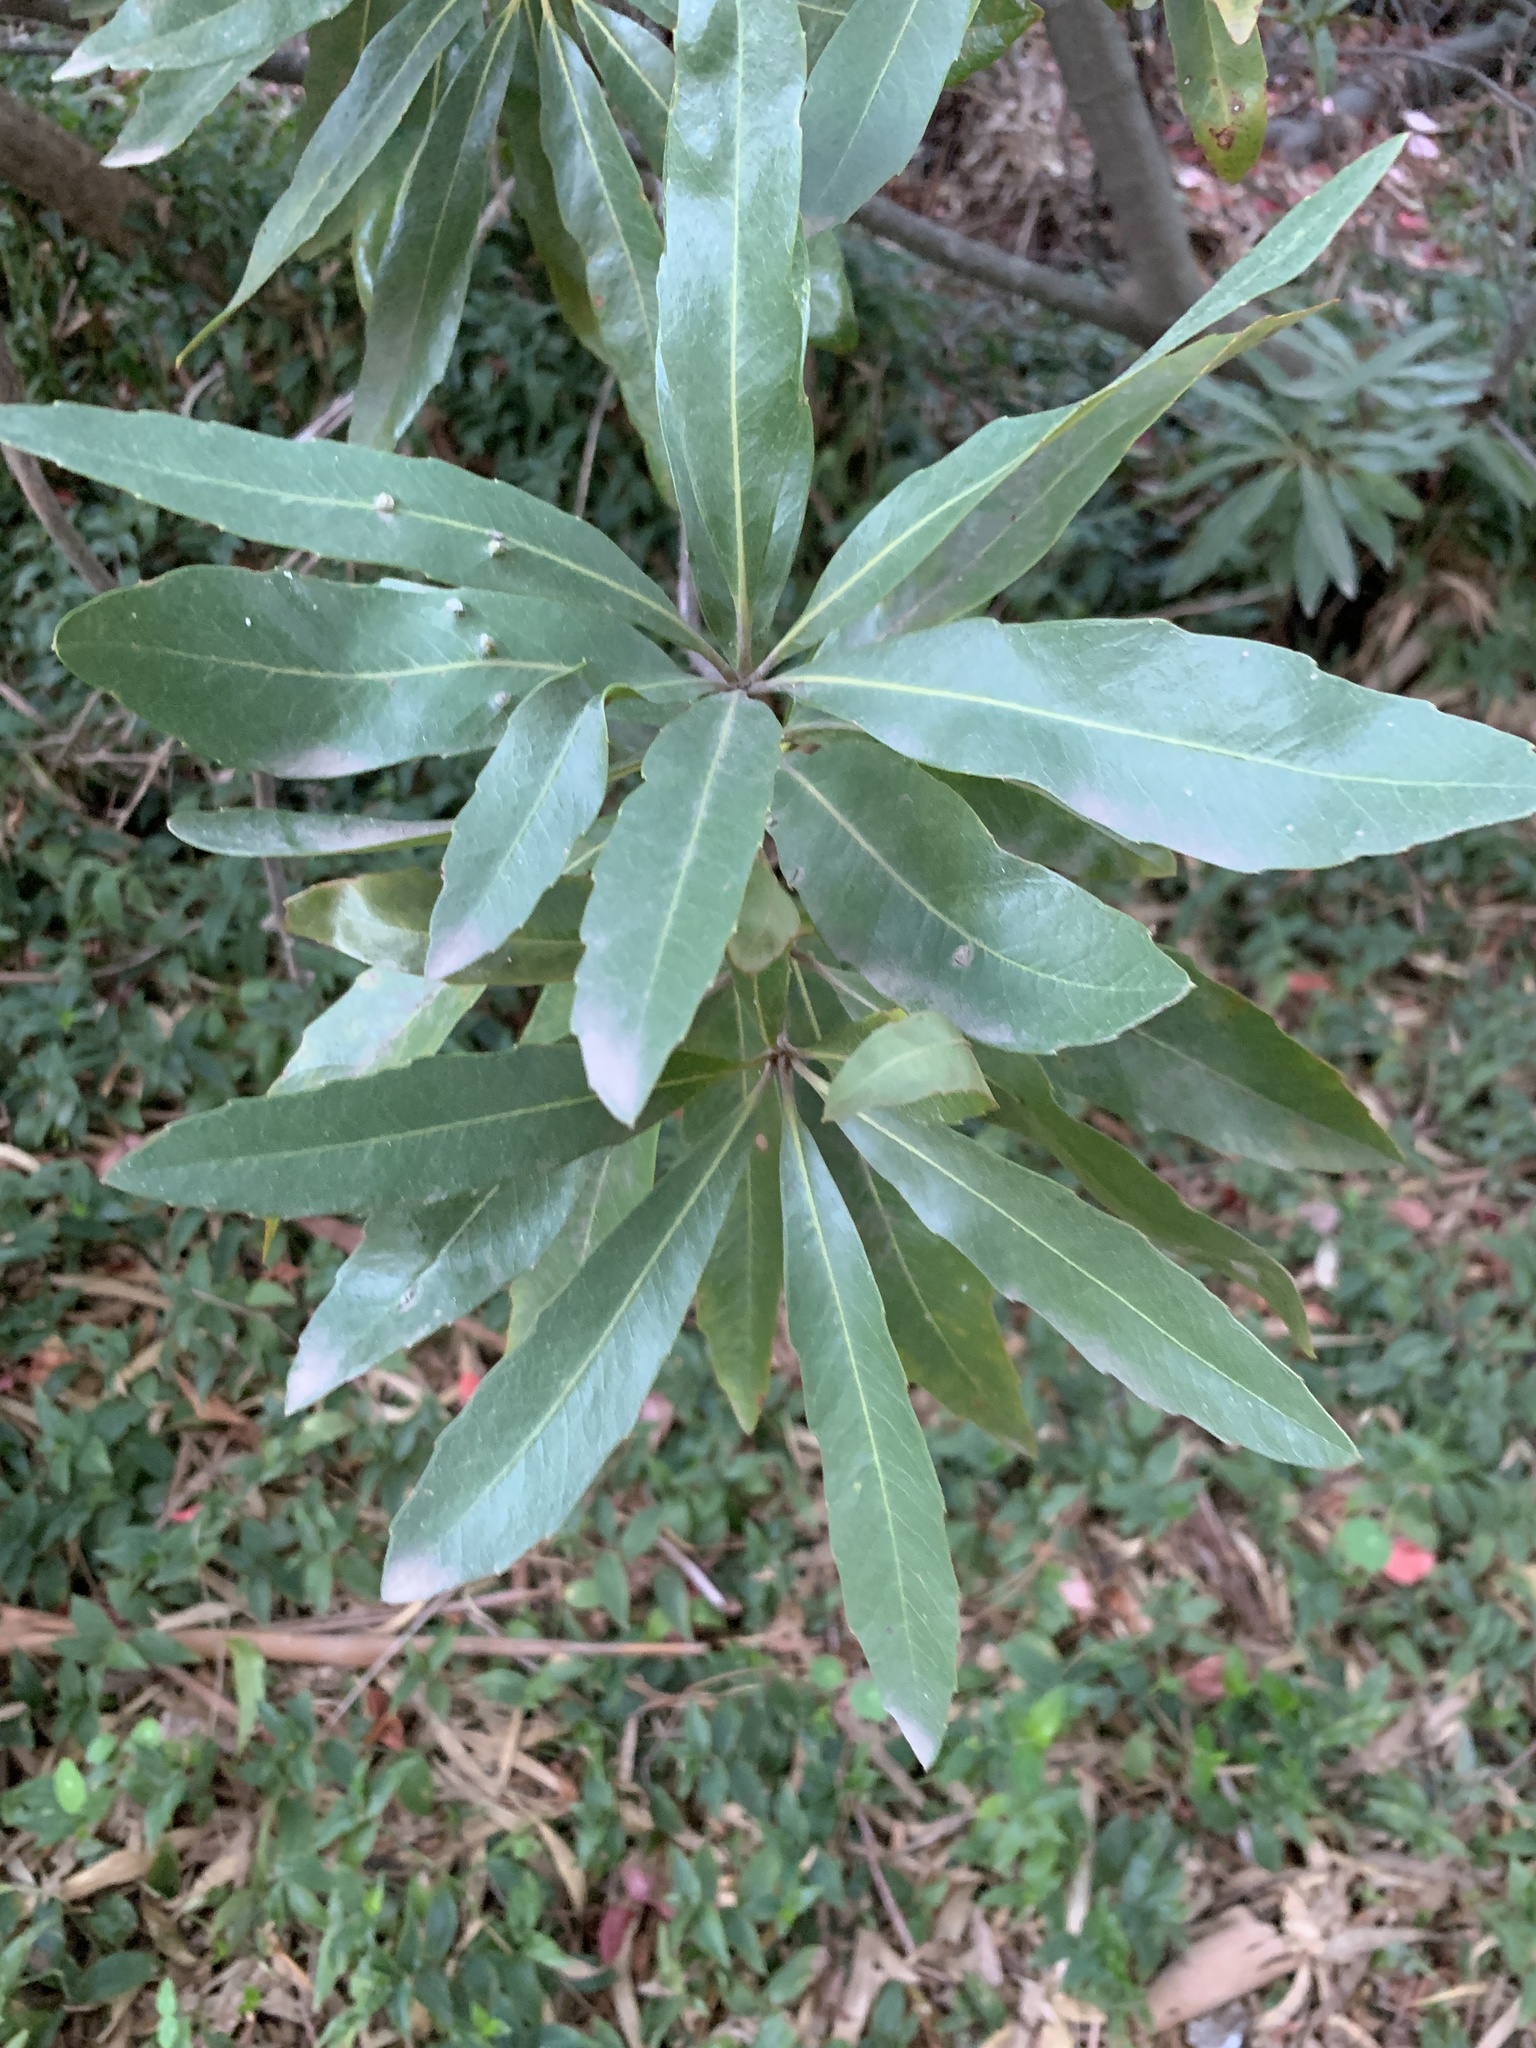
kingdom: Plantae
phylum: Tracheophyta
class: Magnoliopsida
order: Proteales
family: Proteaceae
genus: Brabejum
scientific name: Brabejum stellatifolium
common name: Wild almond
